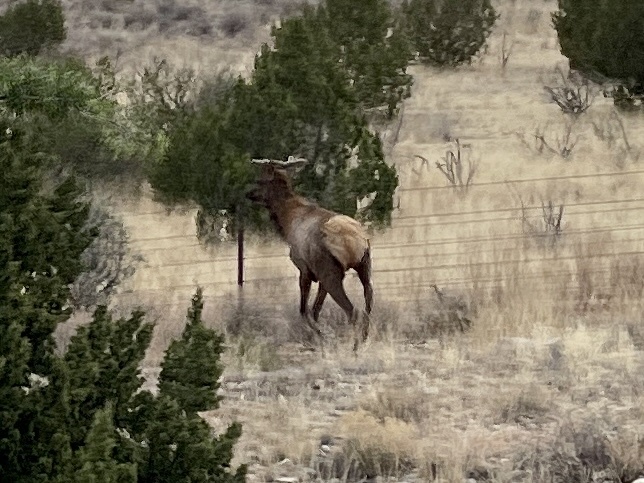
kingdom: Animalia
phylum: Chordata
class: Mammalia
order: Artiodactyla
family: Cervidae
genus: Cervus
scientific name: Cervus elaphus
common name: Red deer
